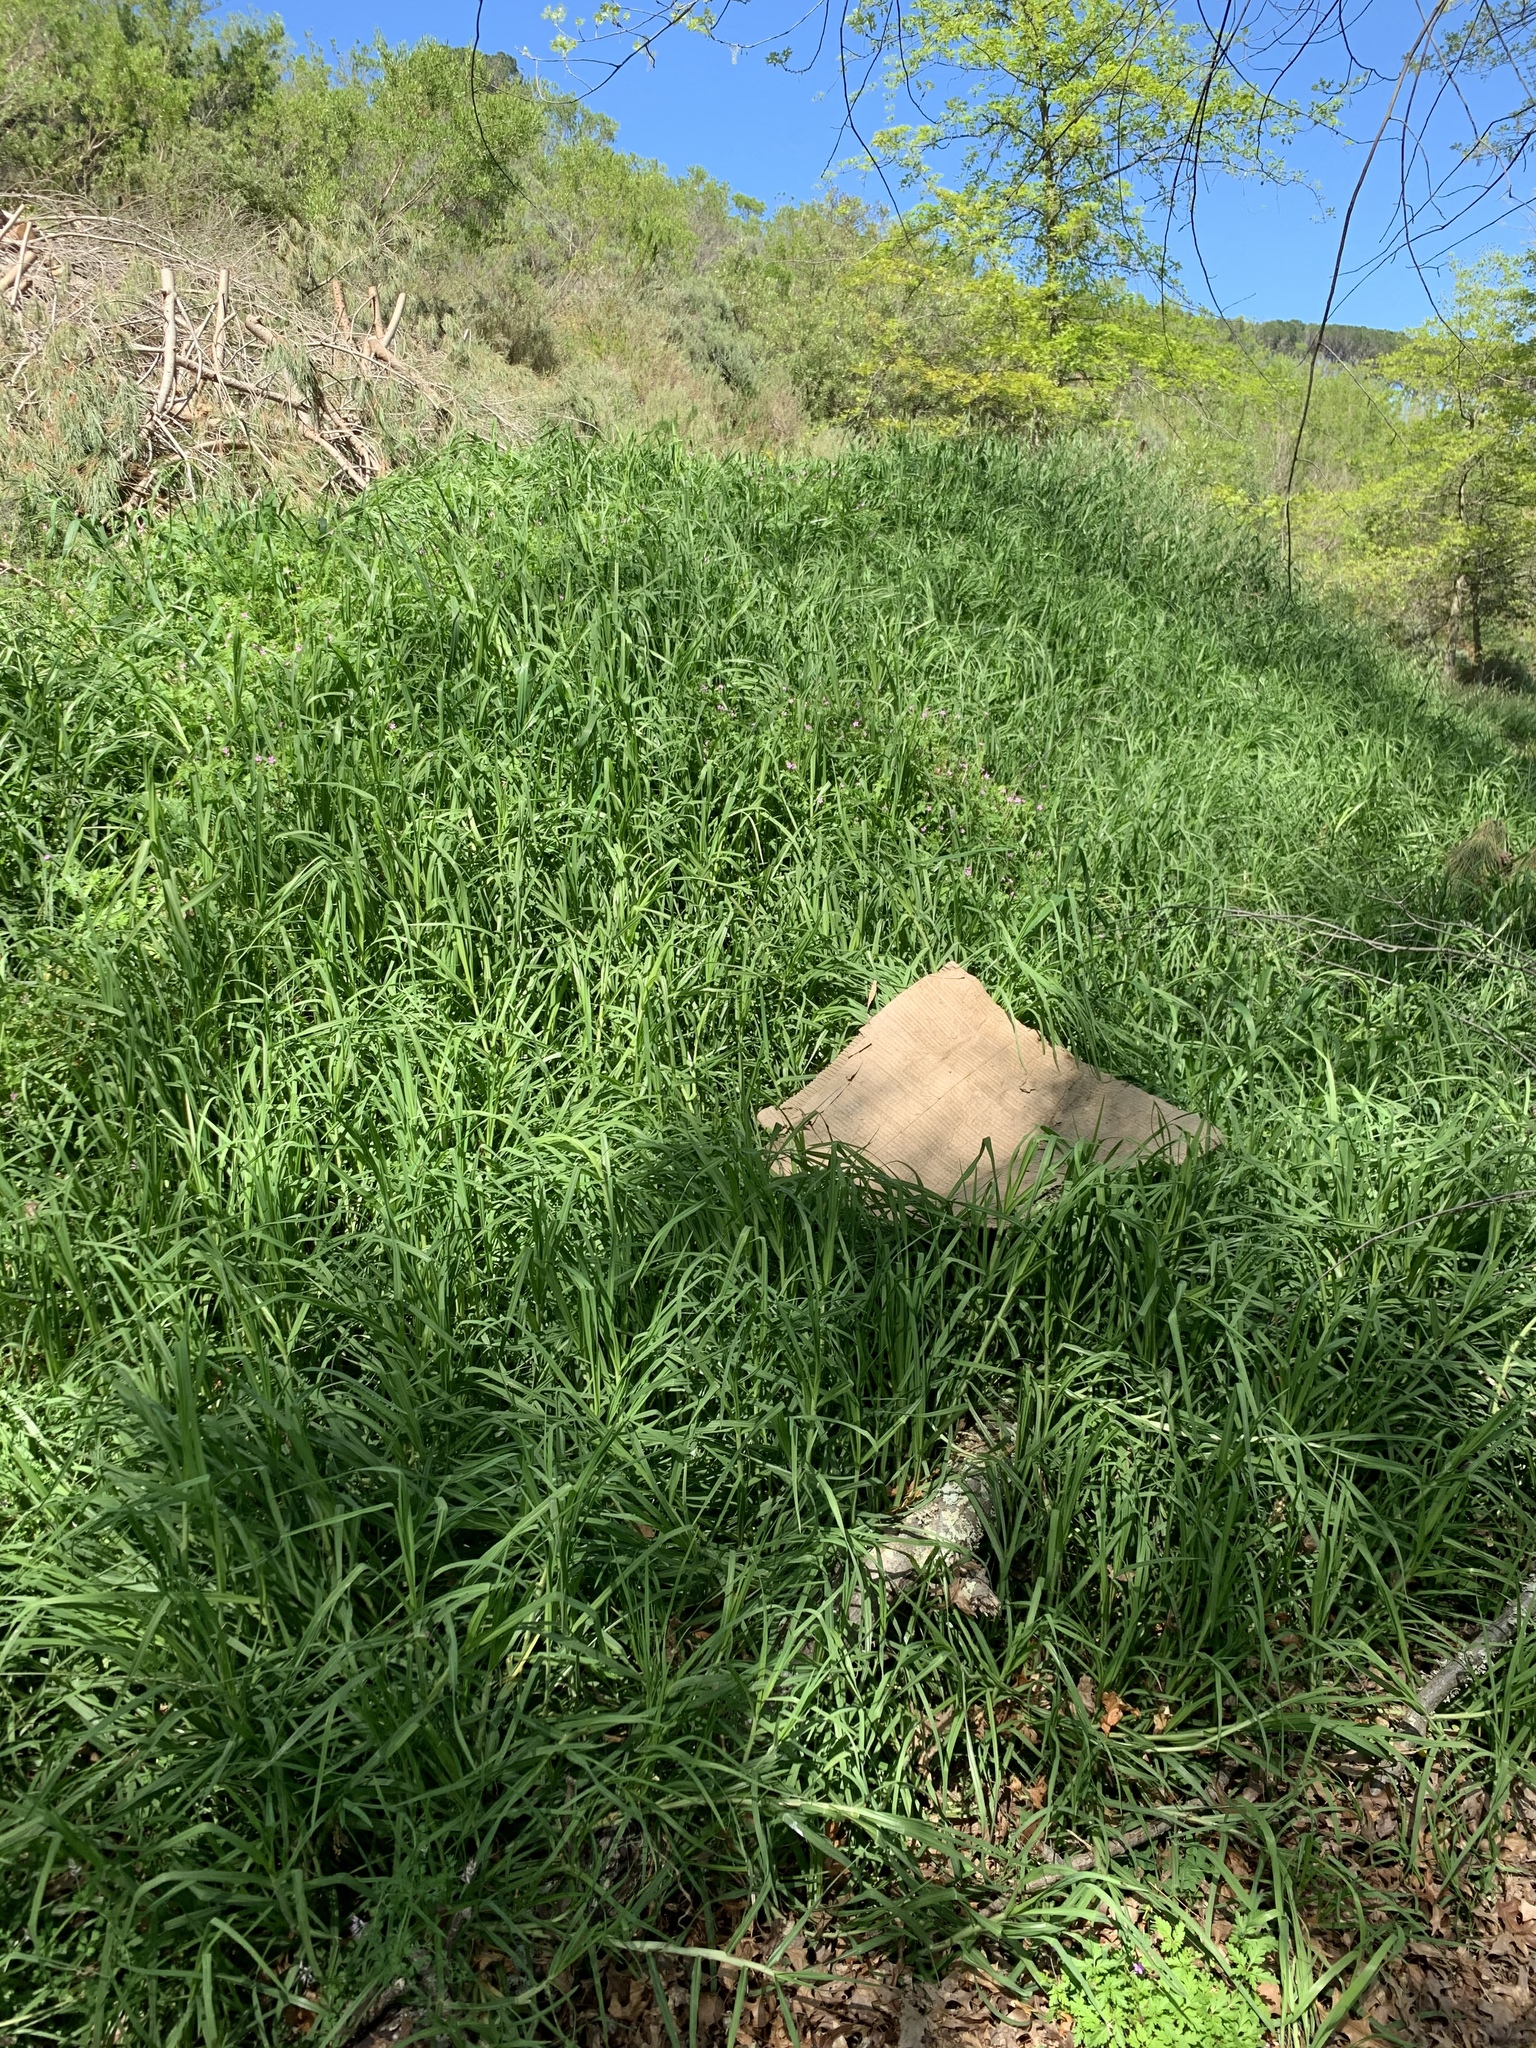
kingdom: Plantae
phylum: Tracheophyta
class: Liliopsida
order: Poales
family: Poaceae
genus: Cenchrus
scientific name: Cenchrus clandestinus
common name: Kikuyugrass
